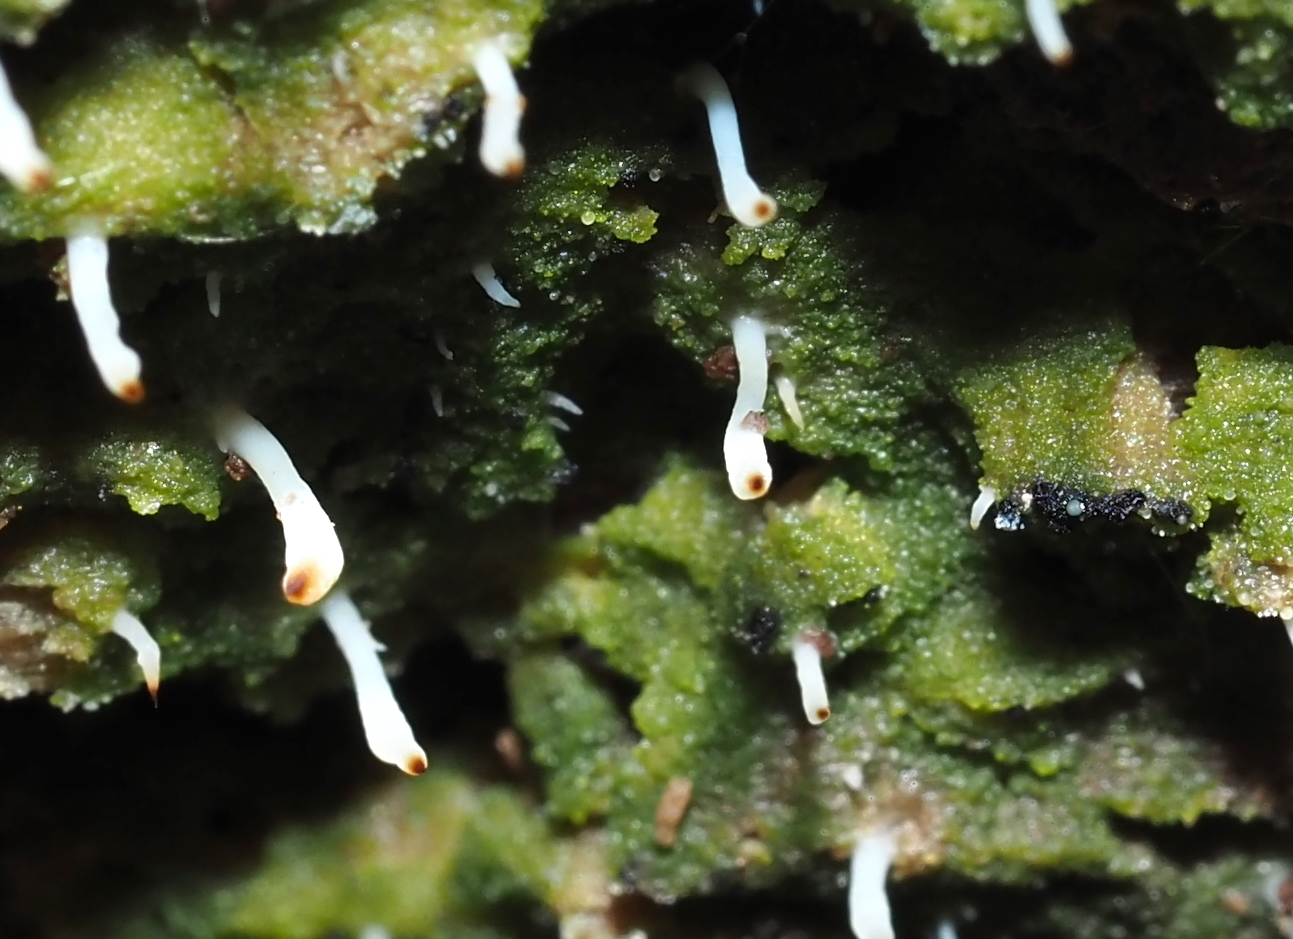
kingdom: Fungi
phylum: Basidiomycota
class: Agaricomycetes
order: Cantharellales
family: Hydnaceae
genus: Multiclavula
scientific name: Multiclavula mucida
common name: White green-algae coral
